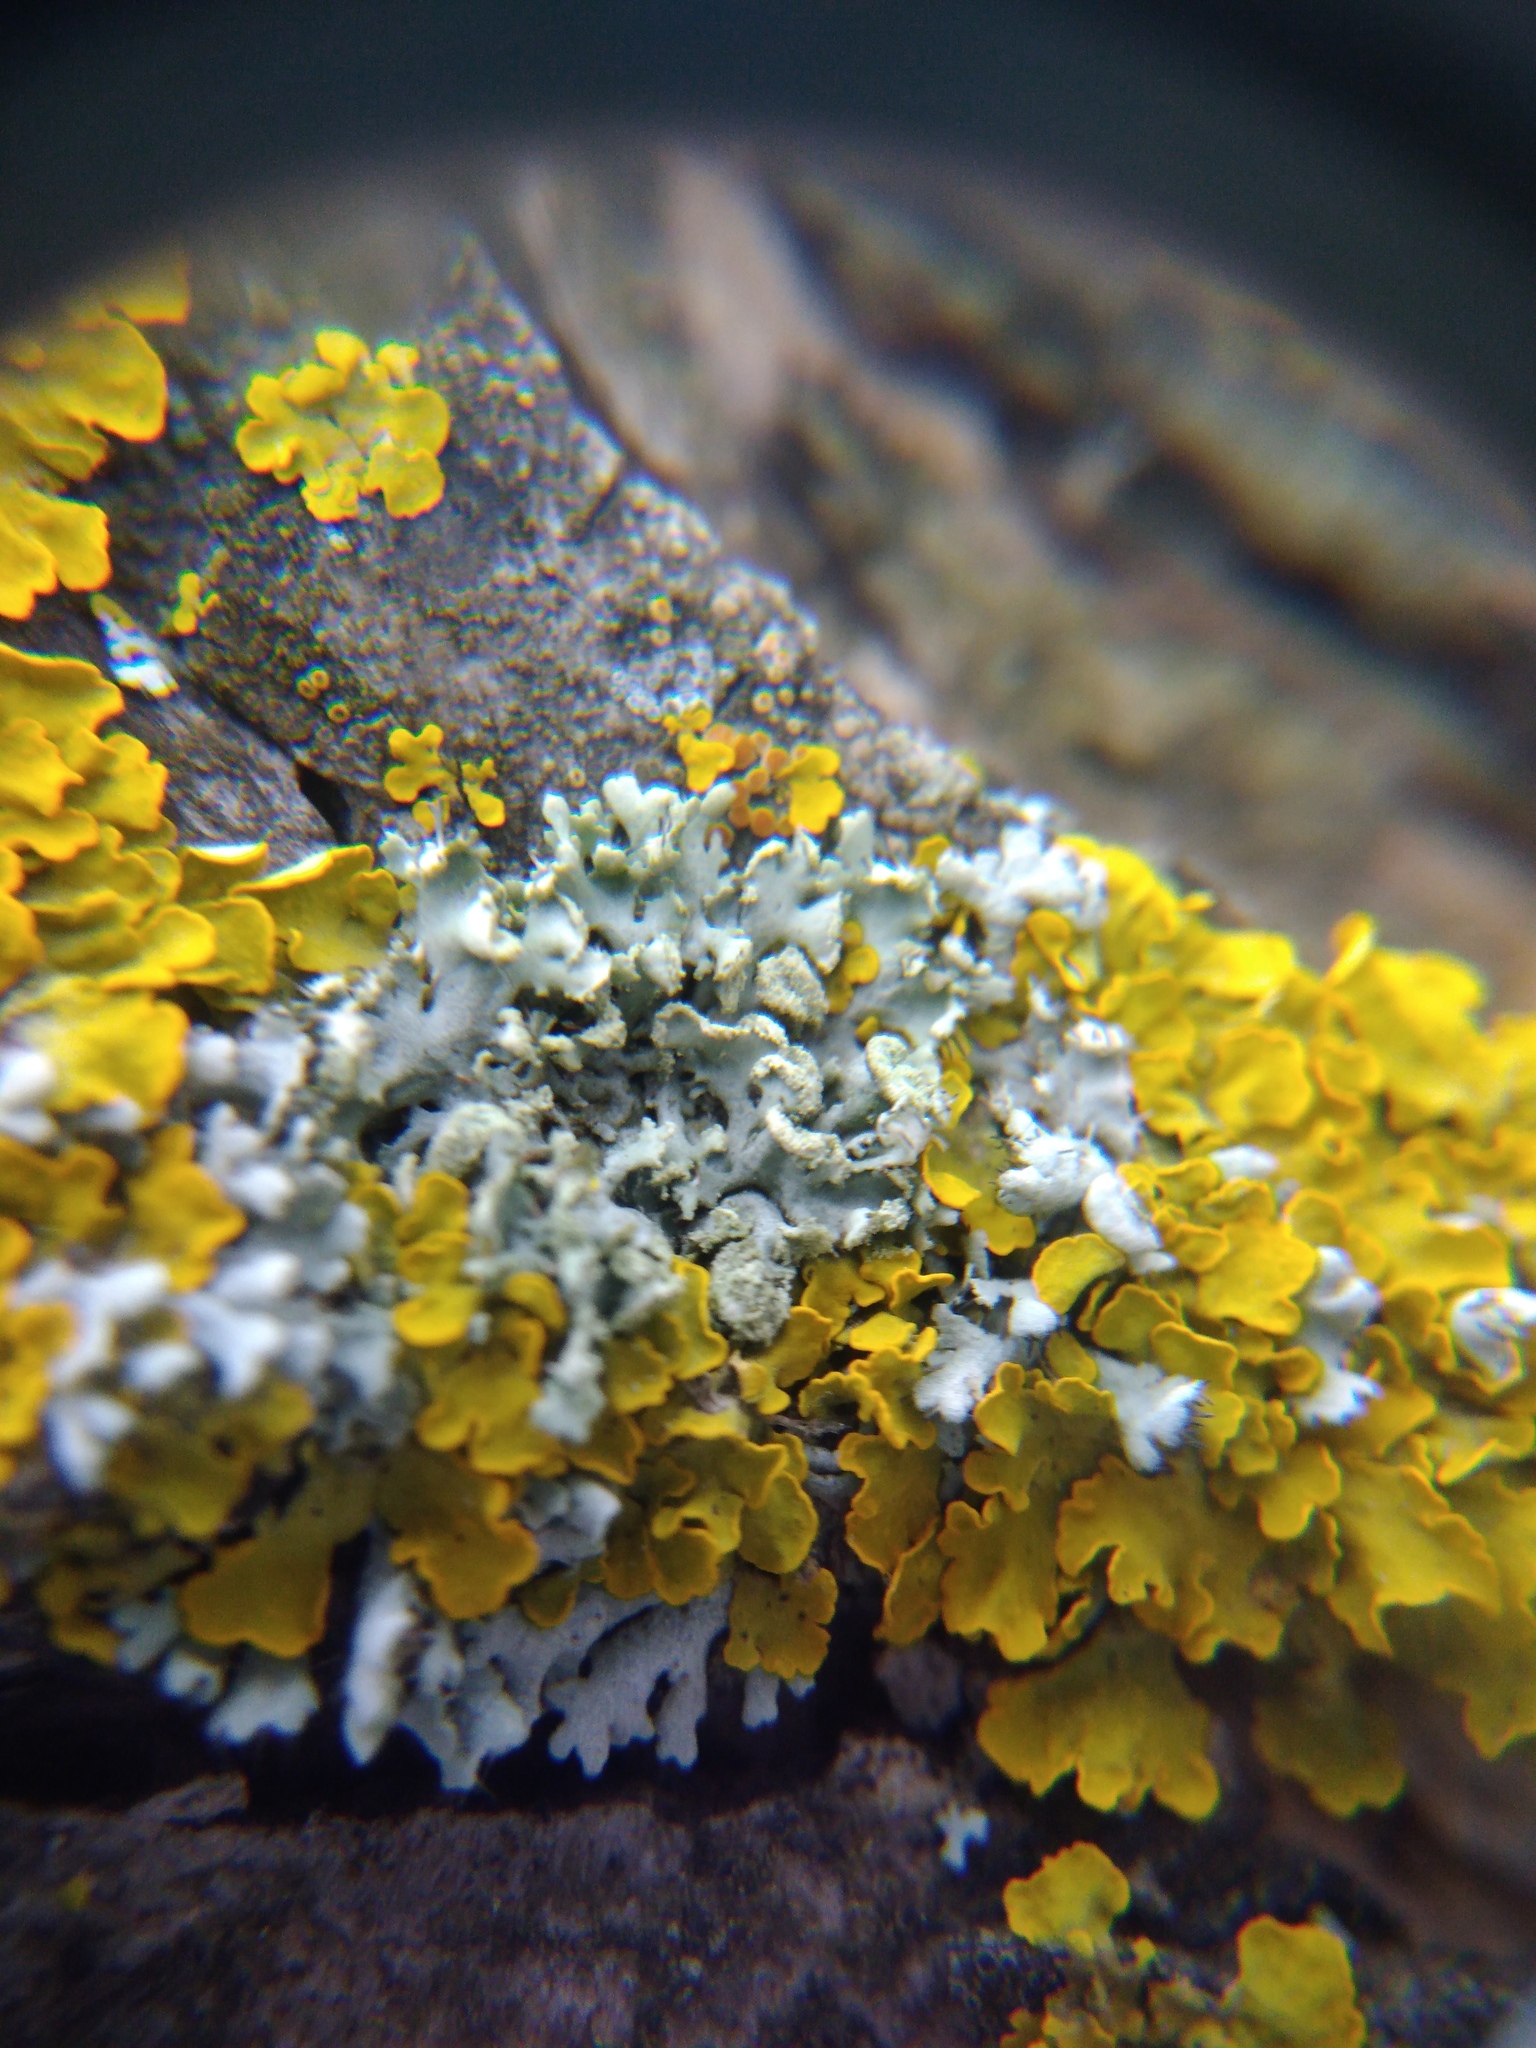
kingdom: Fungi
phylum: Ascomycota
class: Lecanoromycetes
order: Caliciales
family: Physciaceae
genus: Physcia
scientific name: Physcia tenella
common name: Fringed rosette lichen
